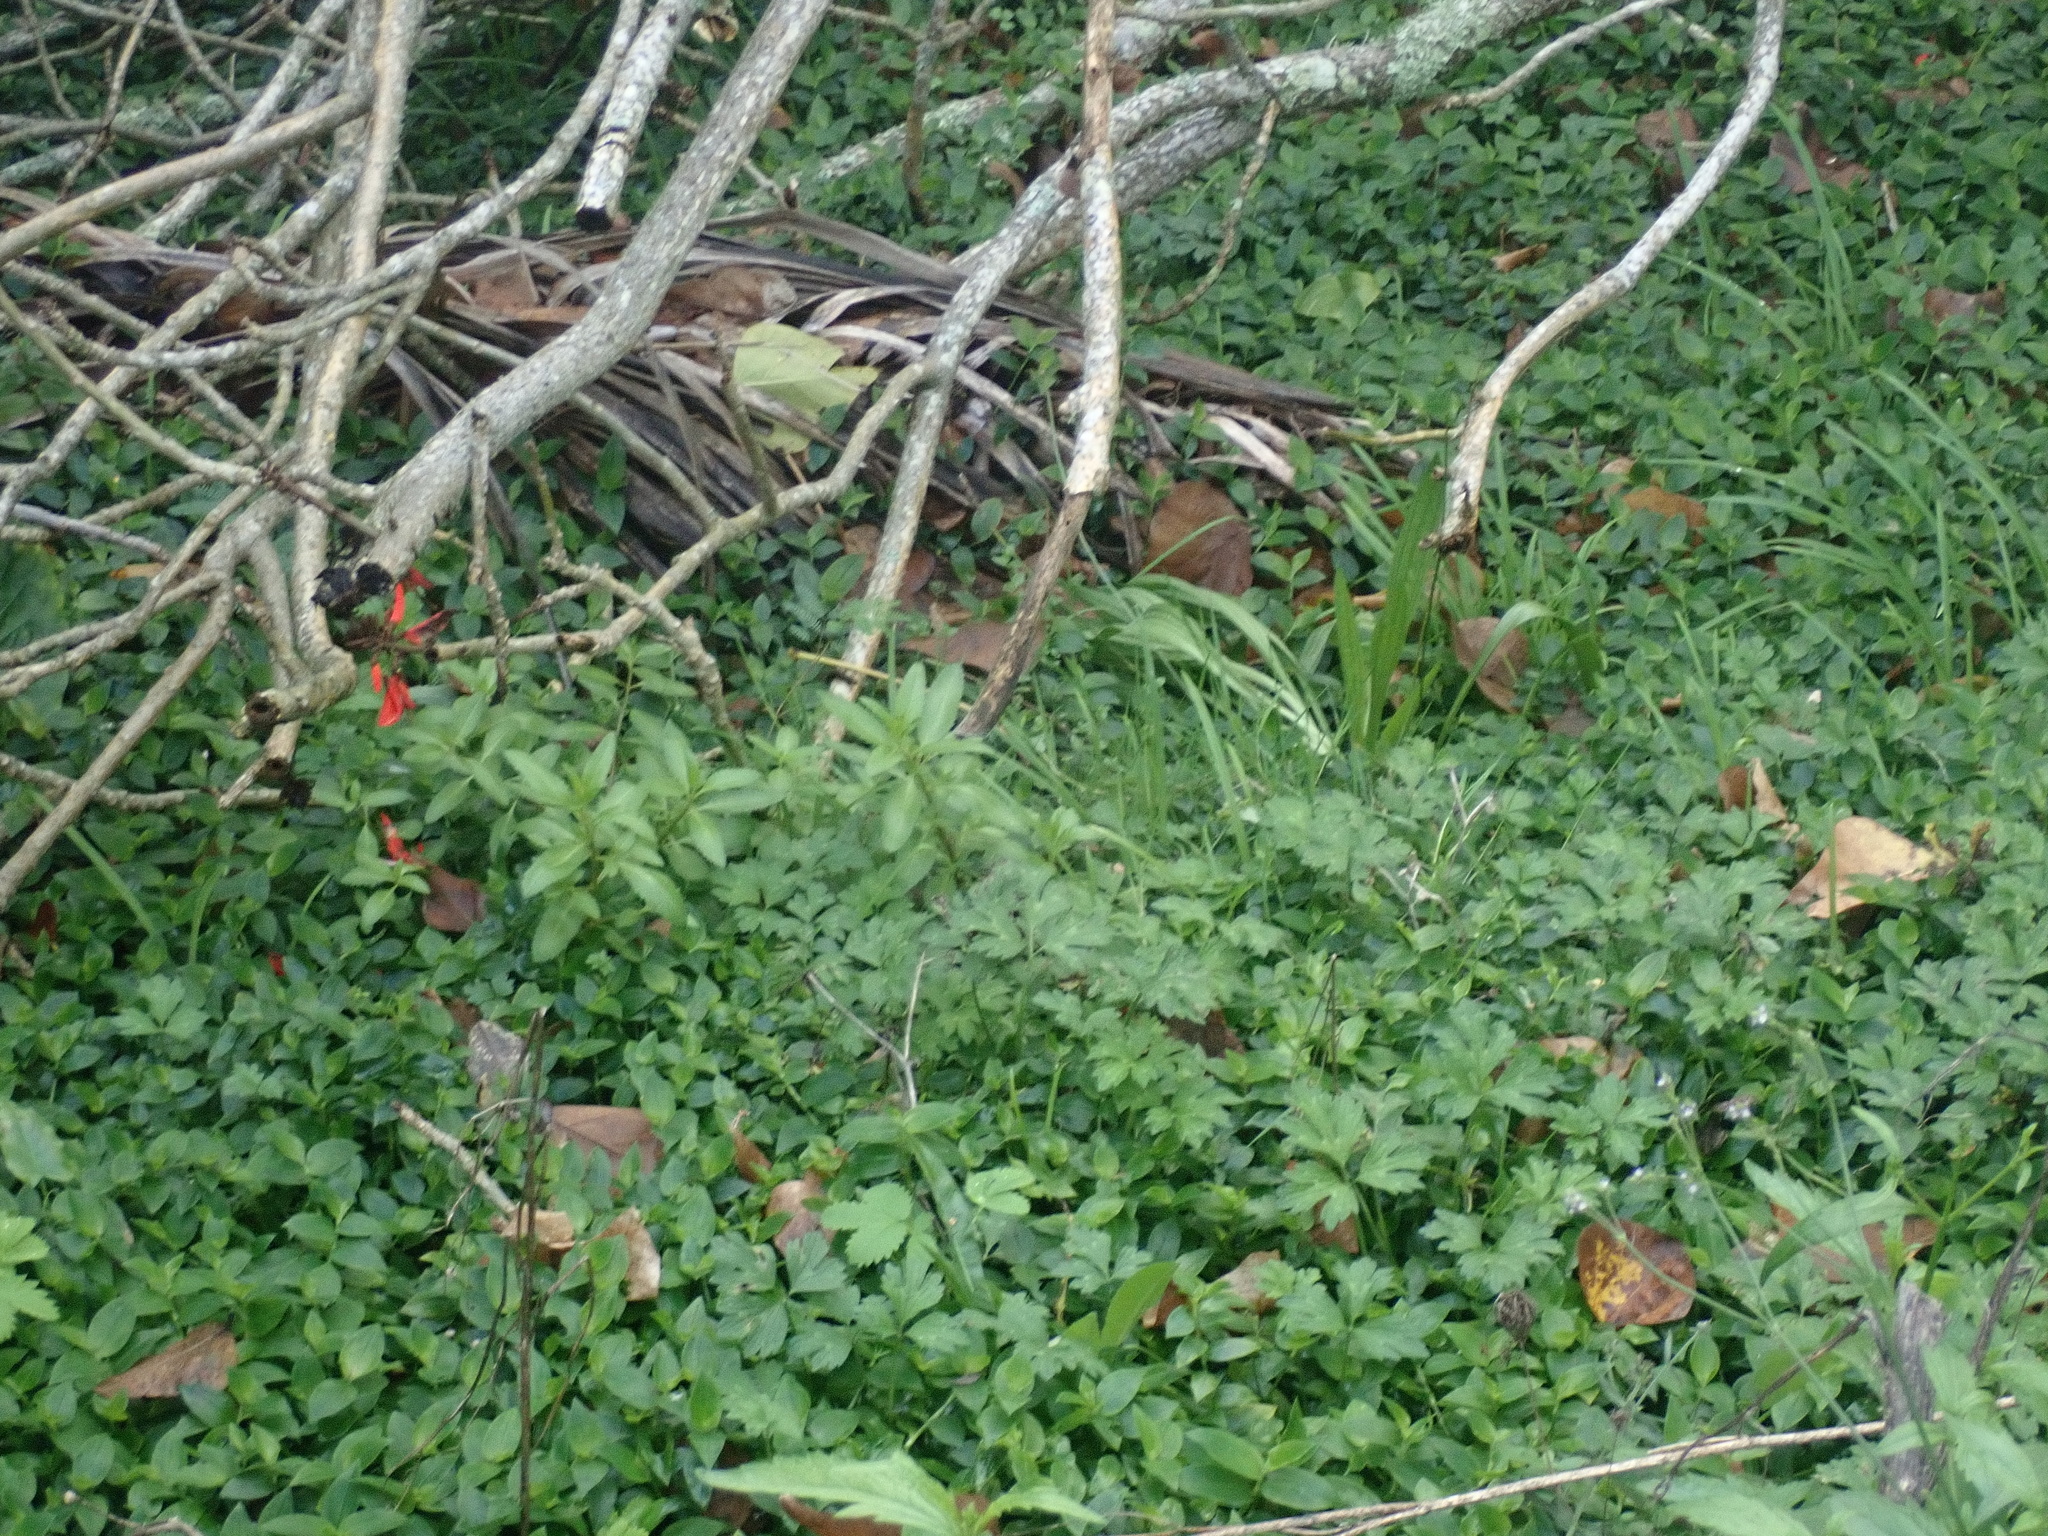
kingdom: Plantae
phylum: Tracheophyta
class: Magnoliopsida
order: Geraniales
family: Melianthaceae
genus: Melianthus
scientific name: Melianthus major
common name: Honey-flower
